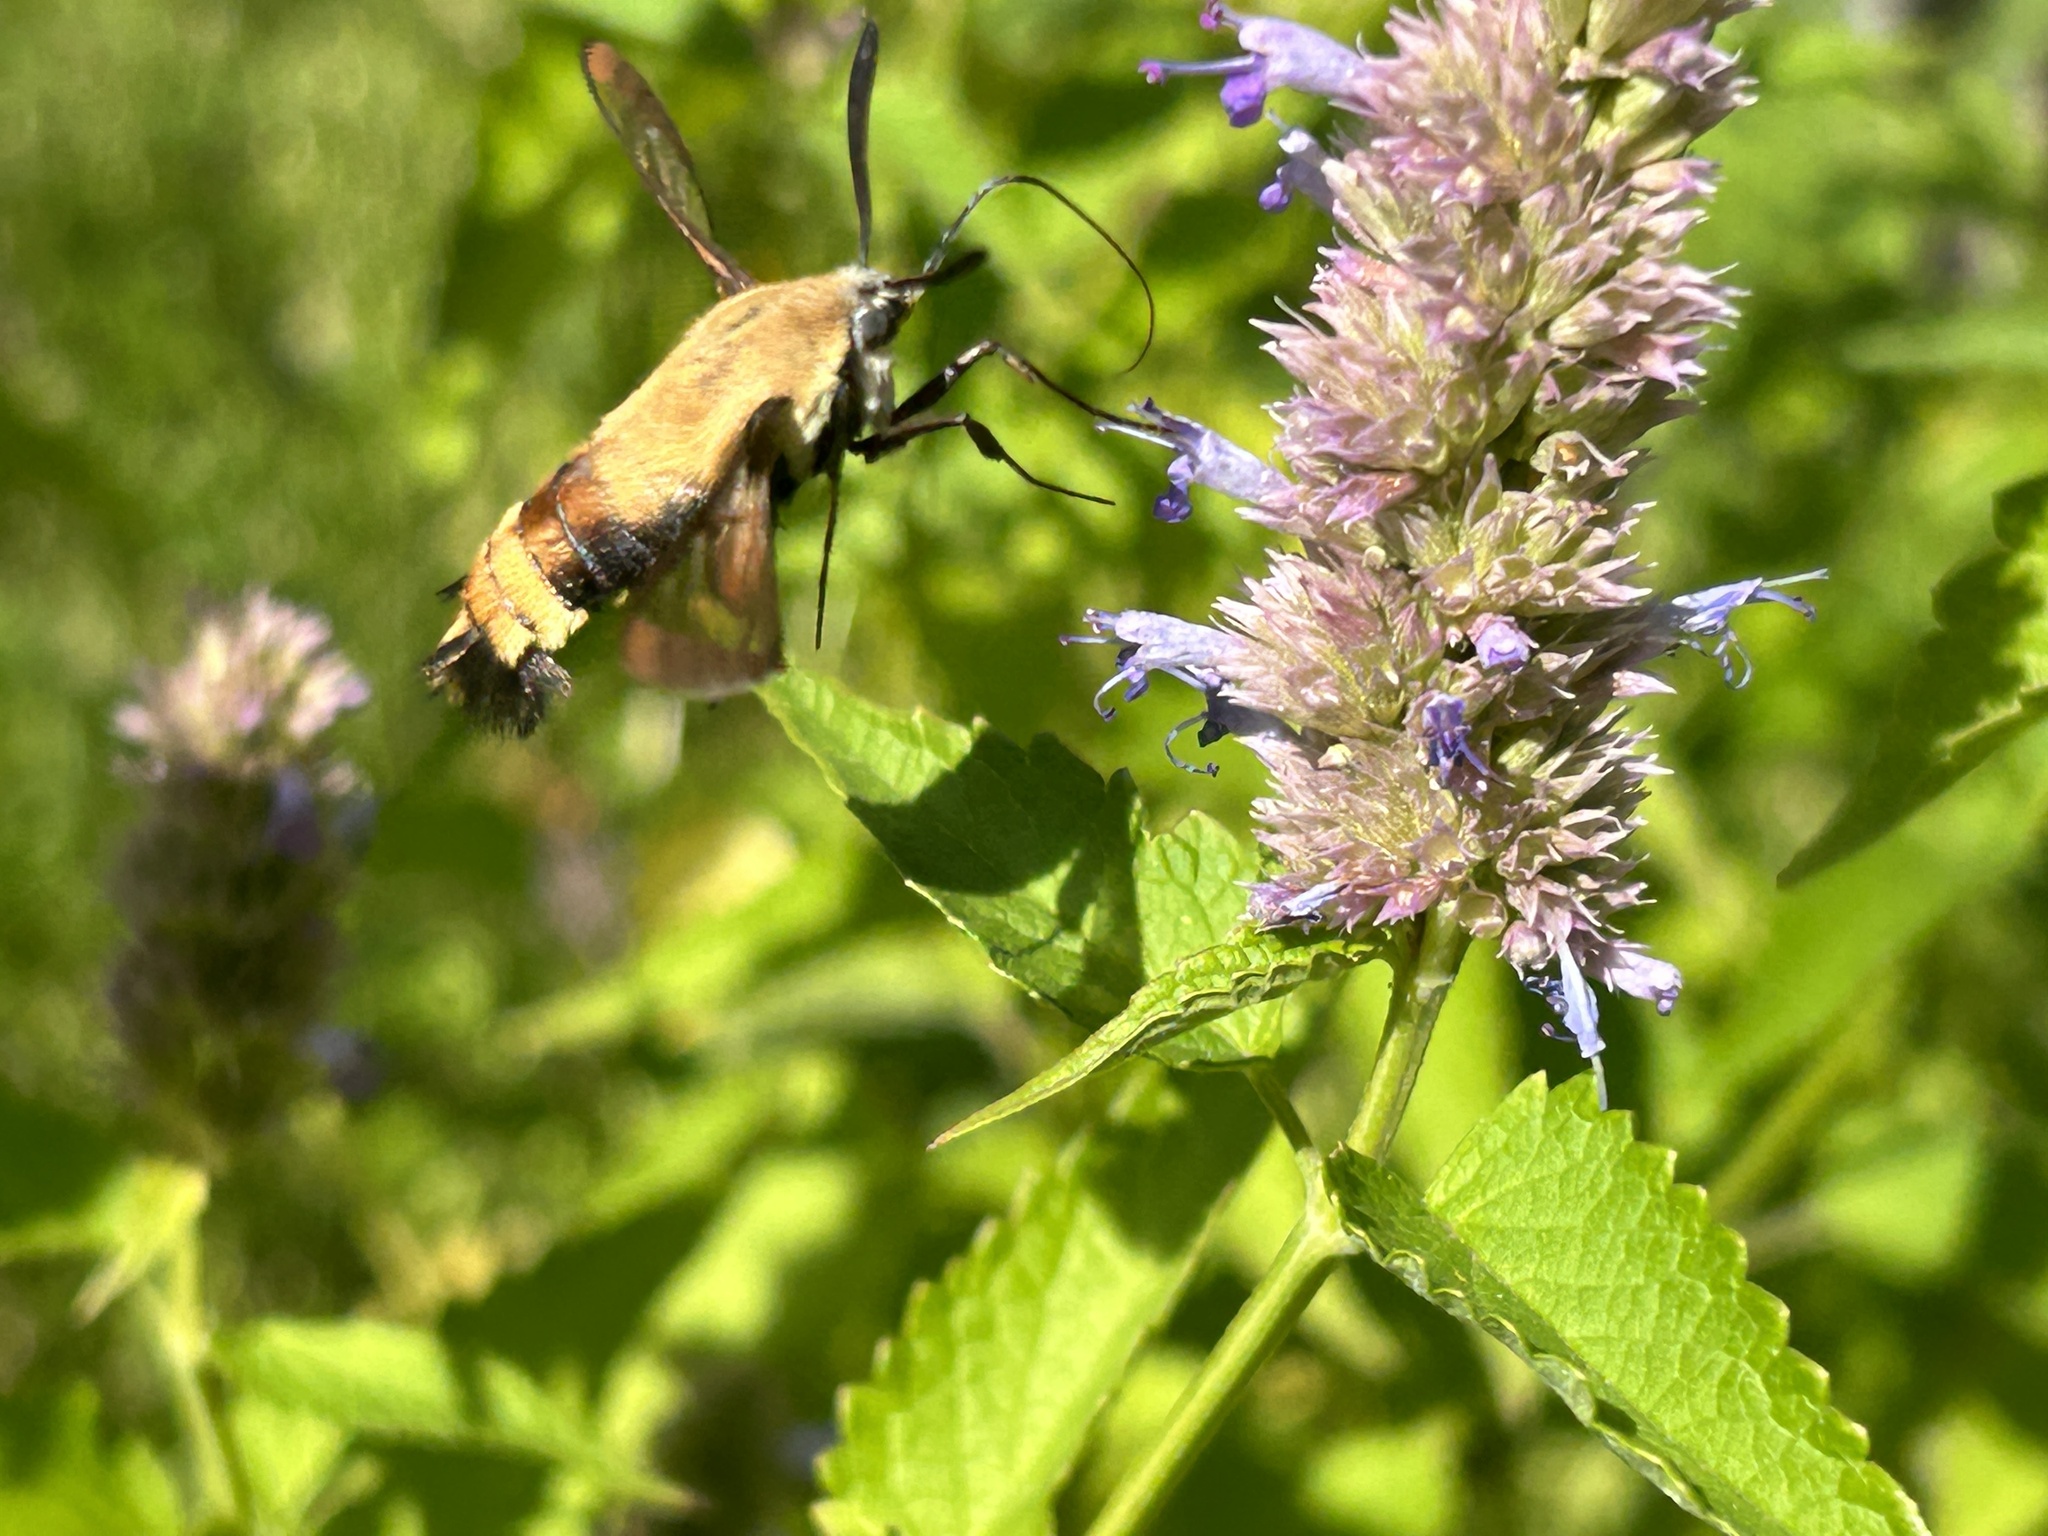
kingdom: Animalia
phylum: Arthropoda
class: Insecta
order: Lepidoptera
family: Sphingidae
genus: Hemaris
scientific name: Hemaris diffinis
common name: Bumblebee moth
